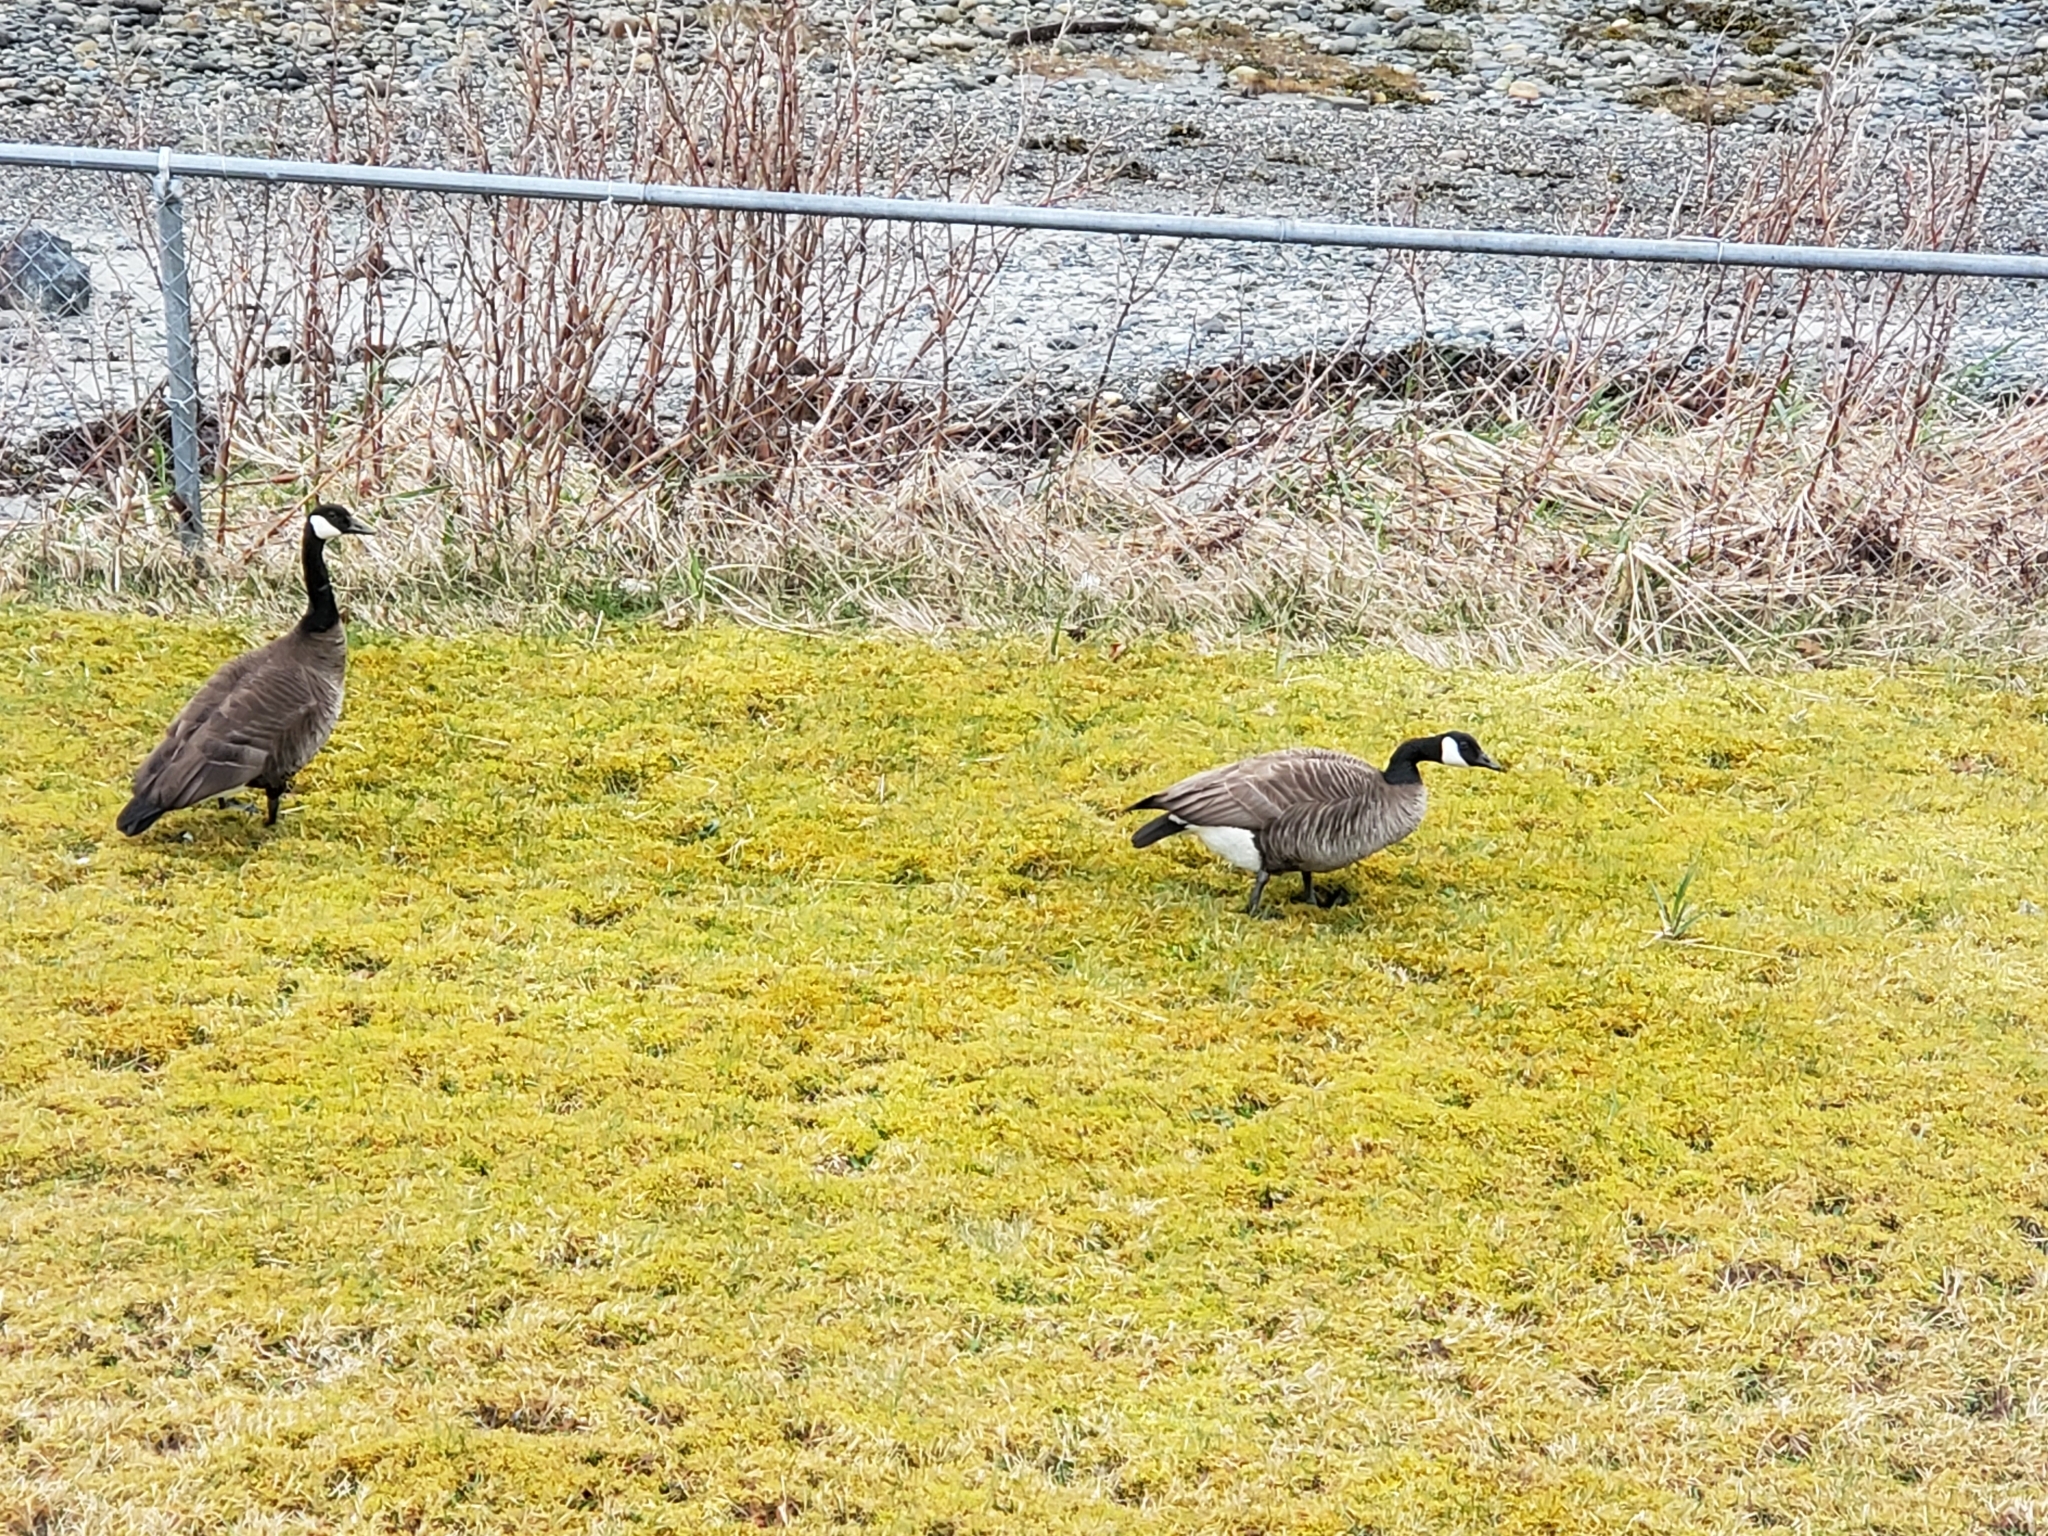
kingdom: Animalia
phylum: Chordata
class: Aves
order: Anseriformes
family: Anatidae
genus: Branta
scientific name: Branta canadensis
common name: Canada goose
